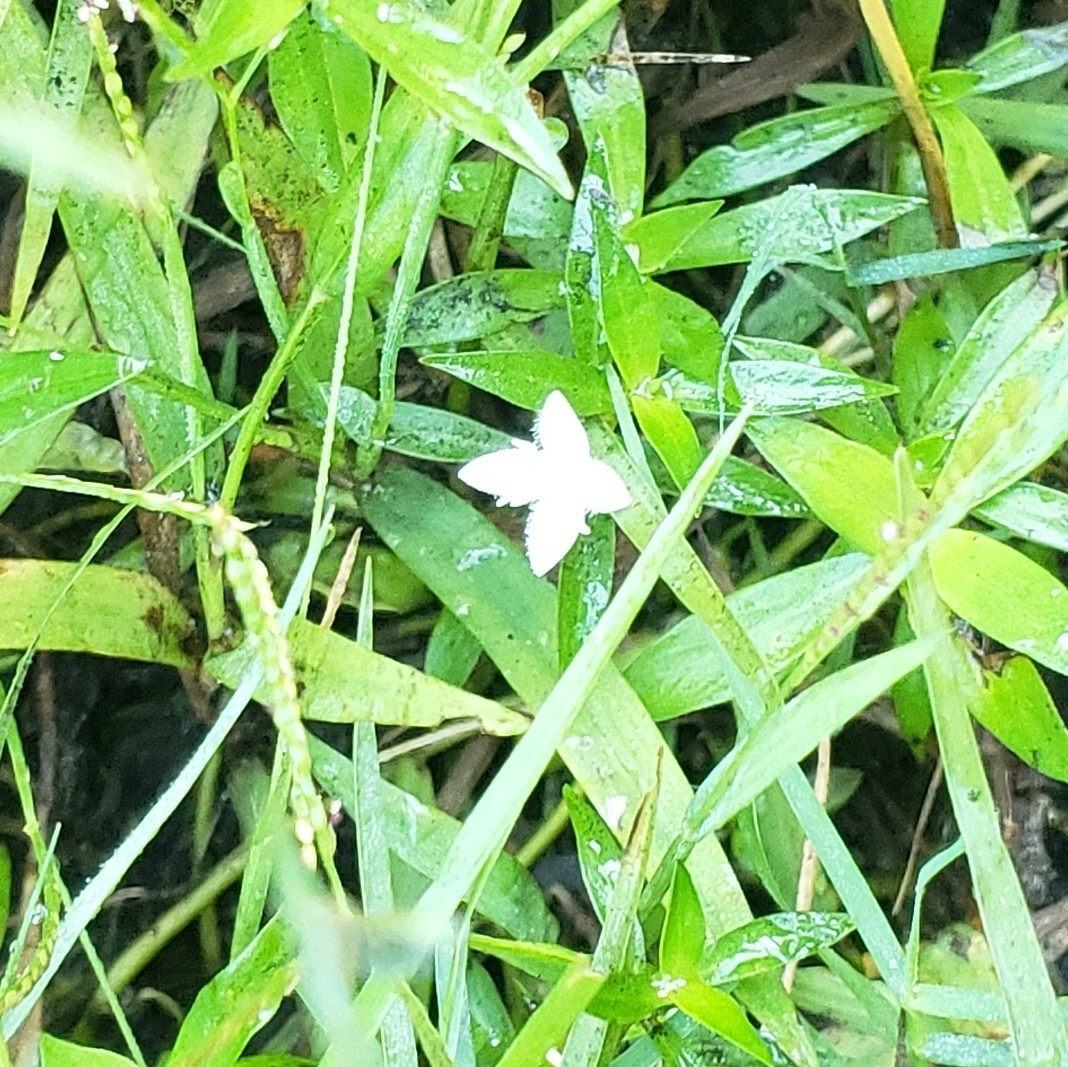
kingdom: Plantae
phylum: Tracheophyta
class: Magnoliopsida
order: Gentianales
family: Rubiaceae
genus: Diodia
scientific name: Diodia virginiana
